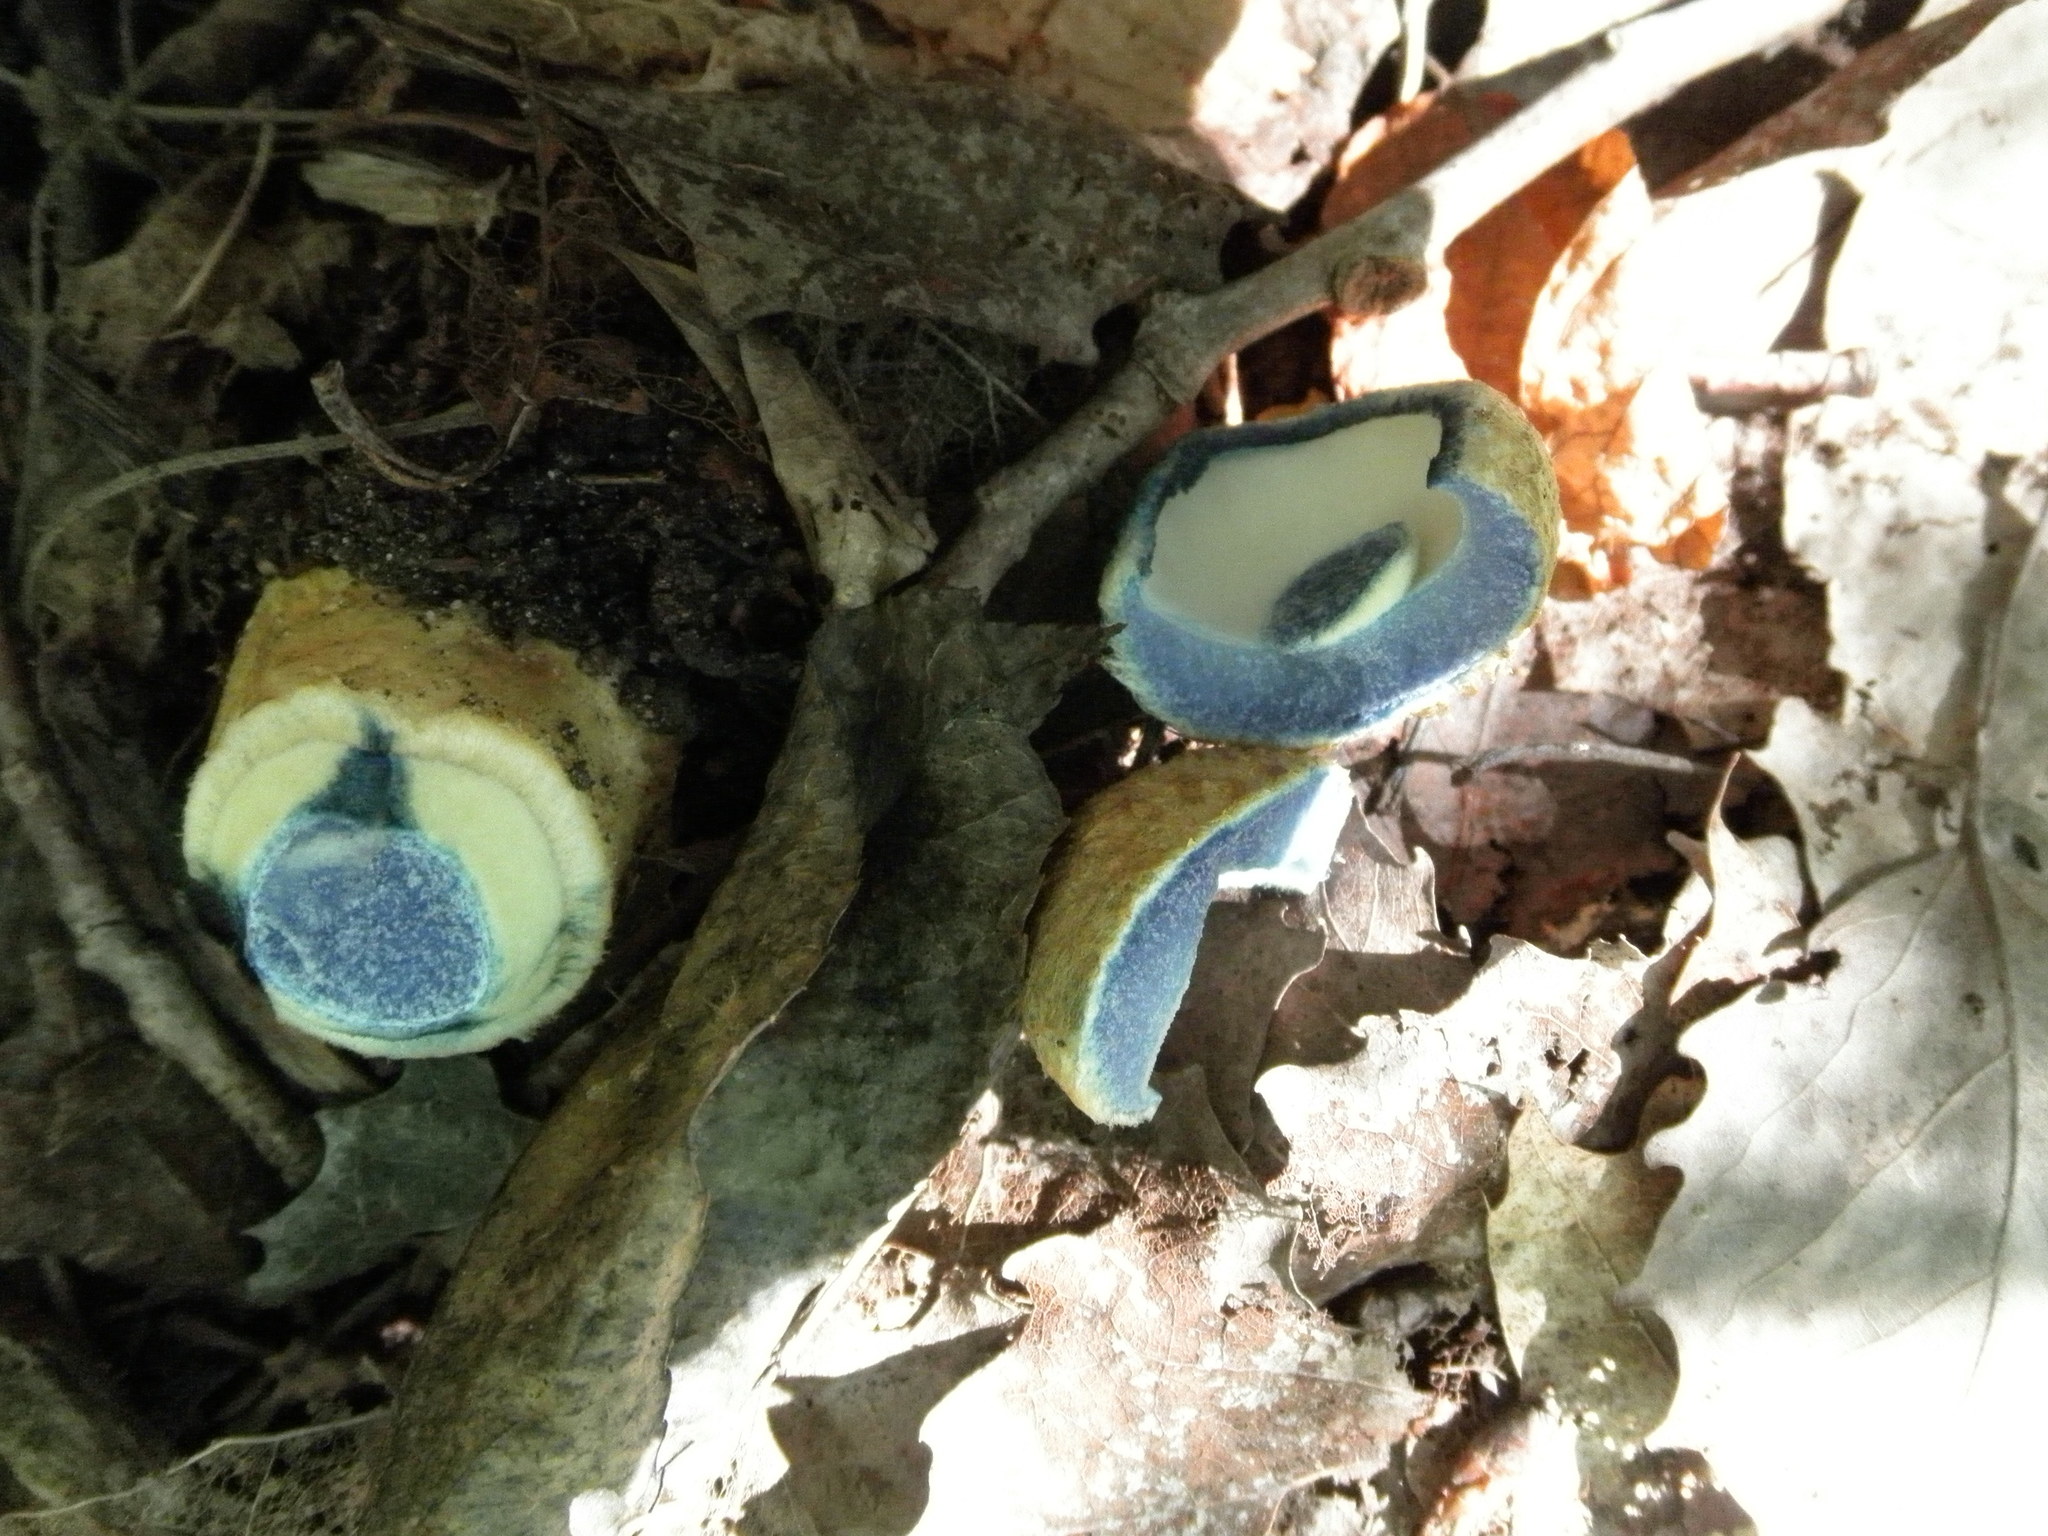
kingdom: Fungi
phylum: Basidiomycota
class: Agaricomycetes
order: Boletales
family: Gyroporaceae
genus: Gyroporus
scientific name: Gyroporus cyanescens
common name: Cornflower bolete
